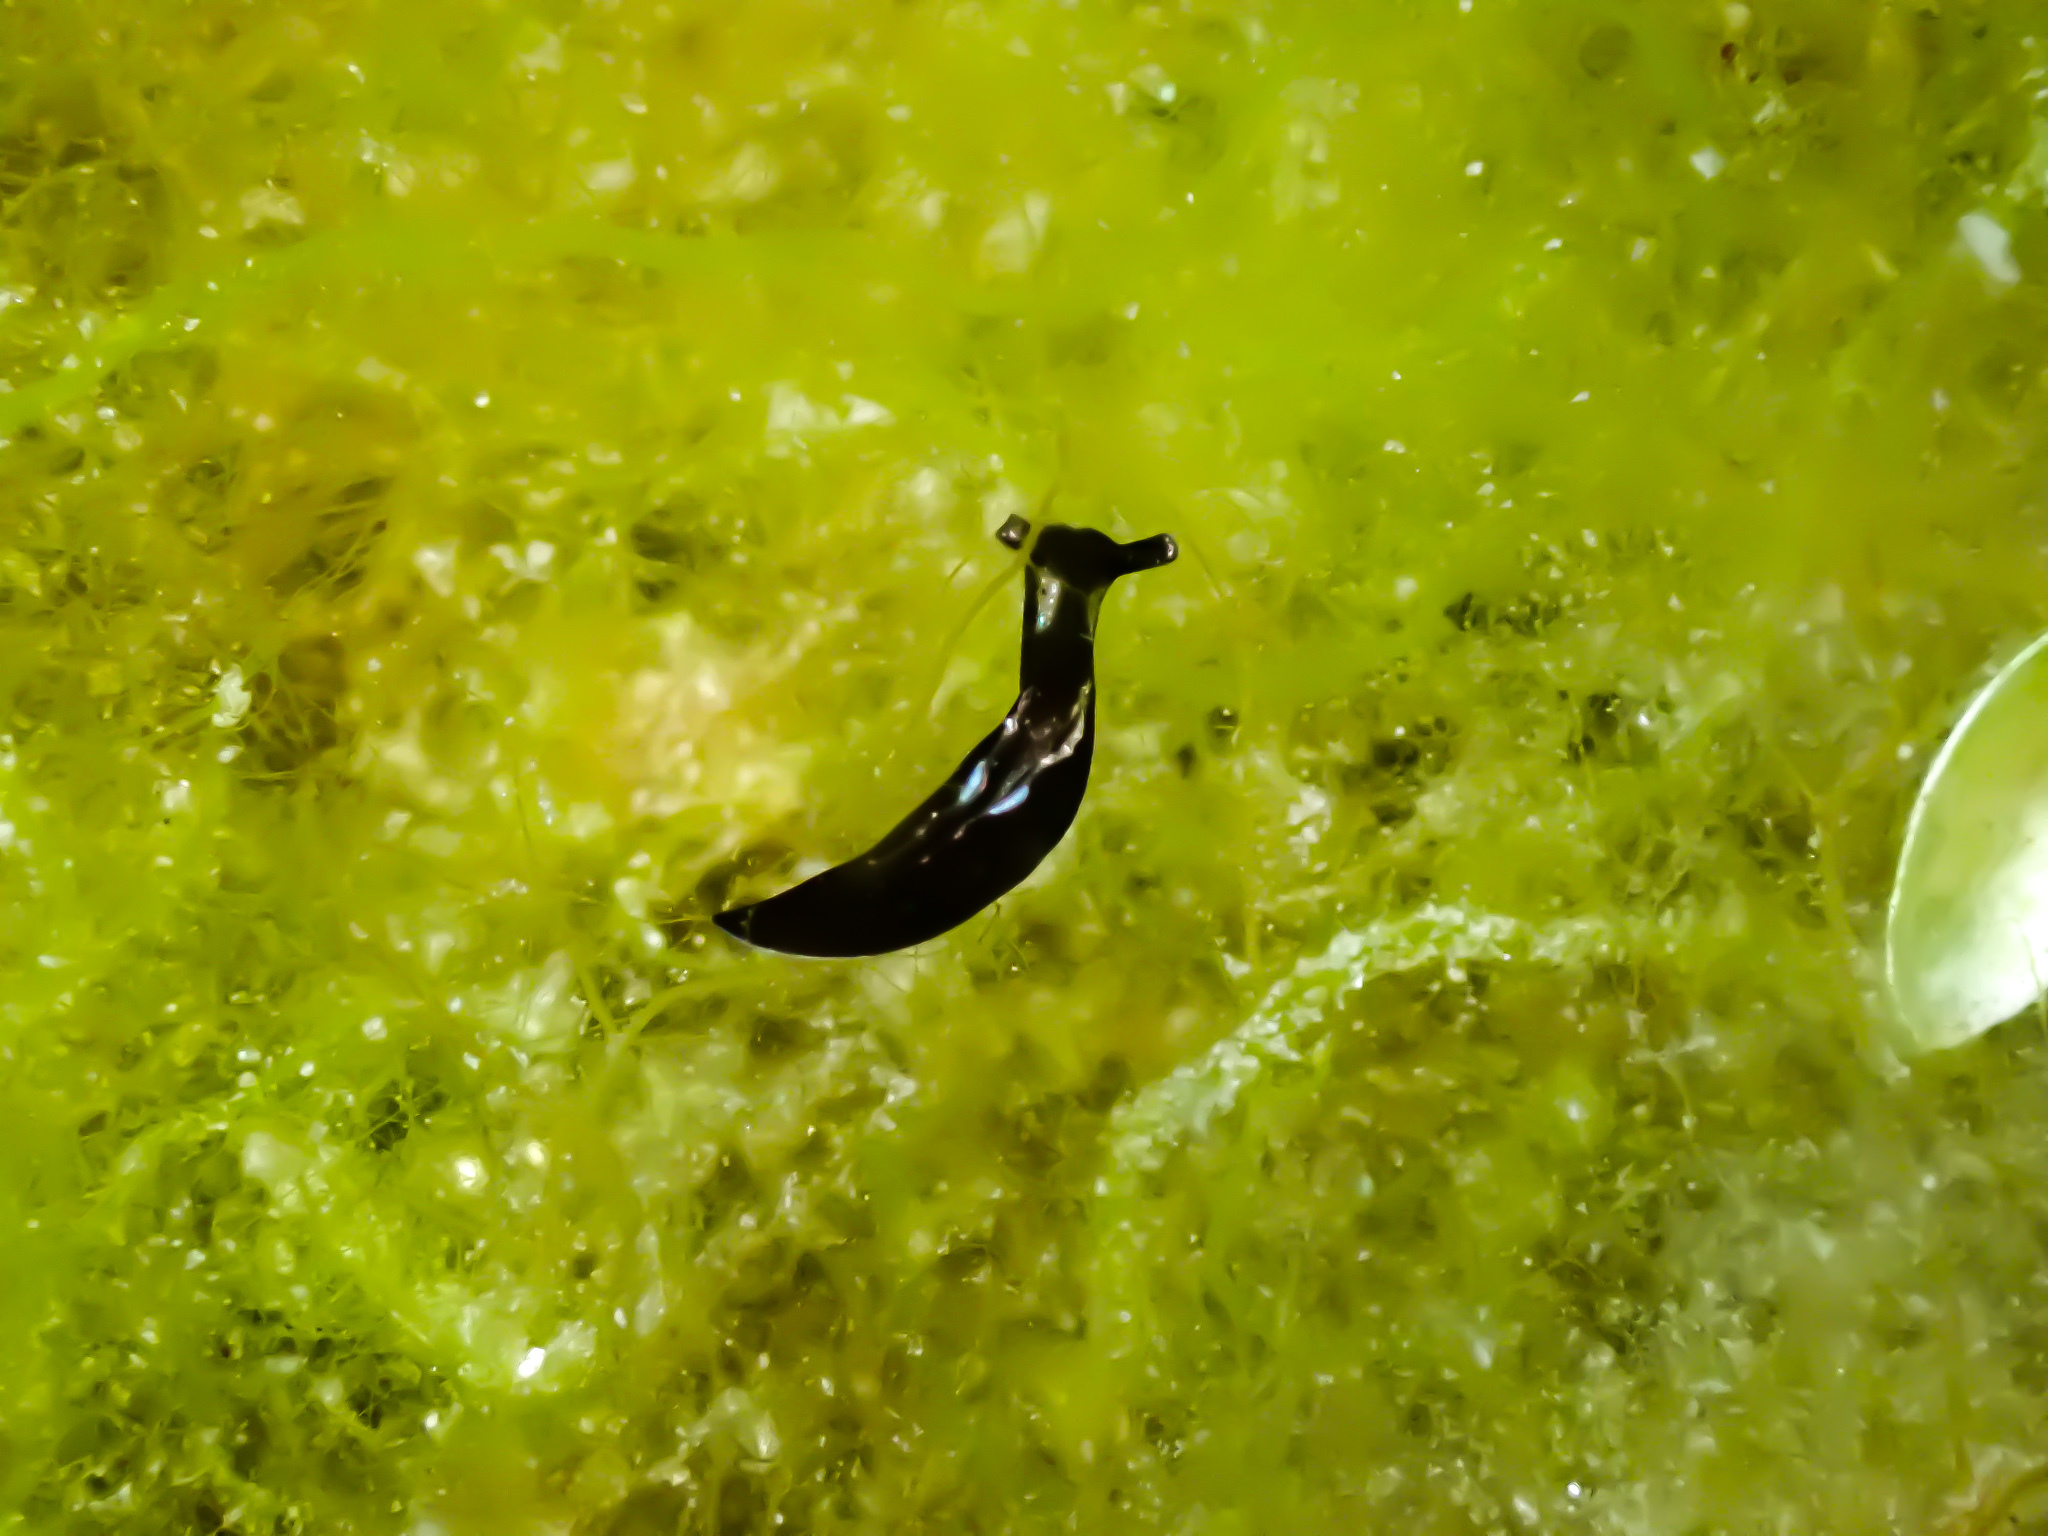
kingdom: Animalia
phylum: Mollusca
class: Gastropoda
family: Plakobranchidae
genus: Elysia
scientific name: Elysia viridis
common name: Green elysia
